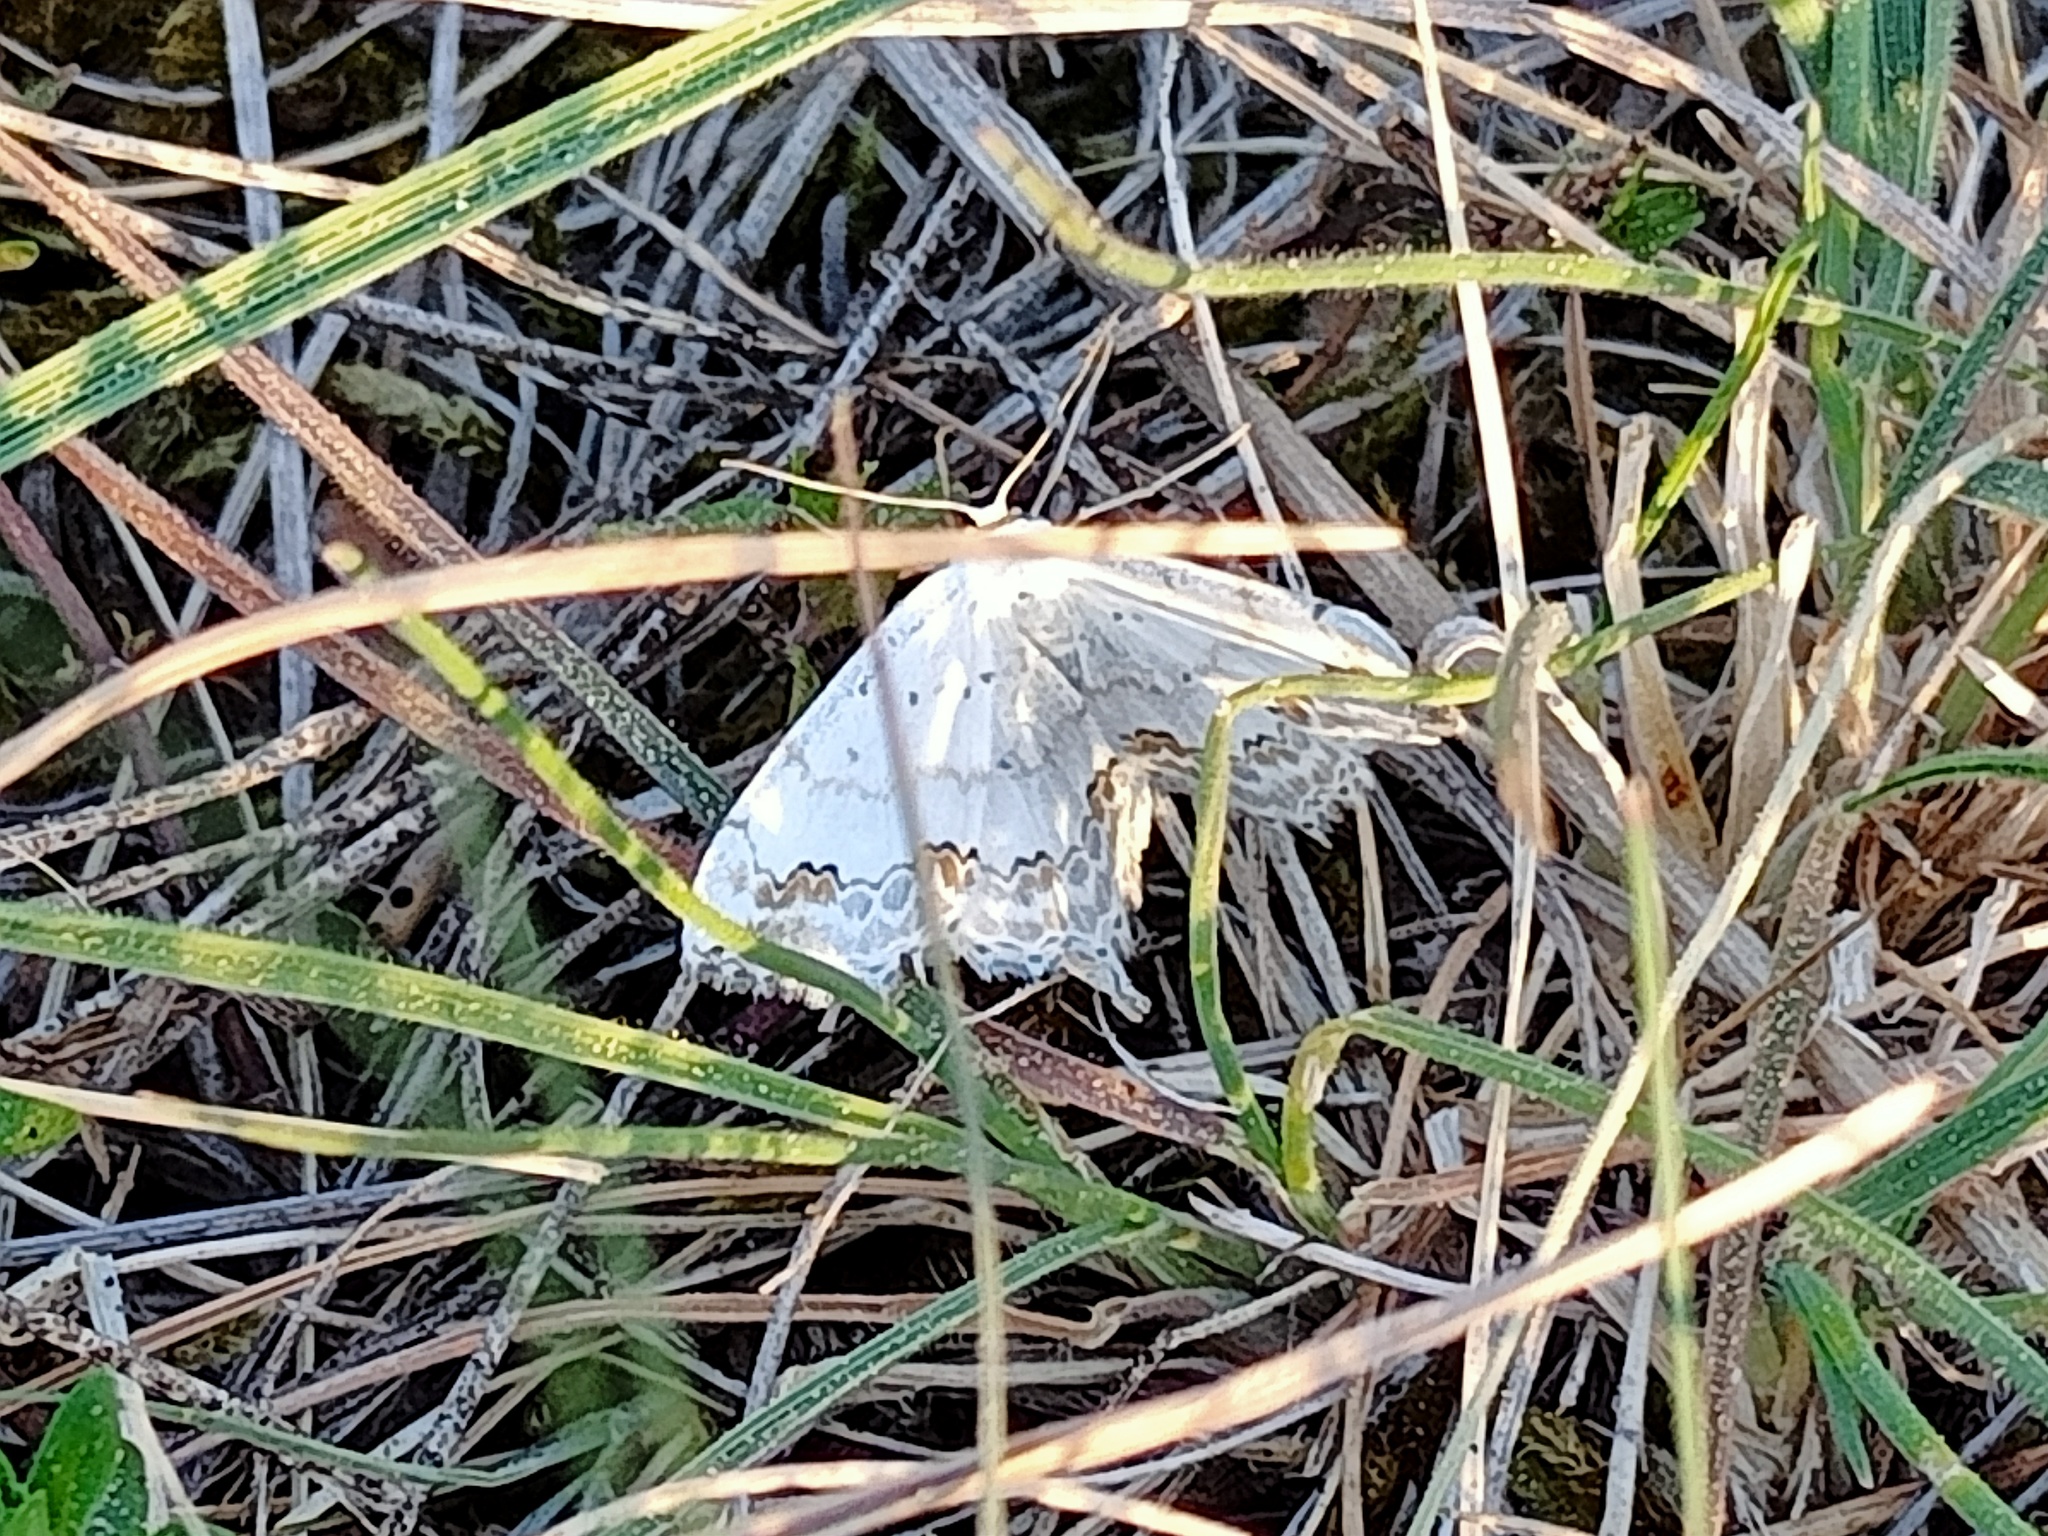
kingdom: Animalia
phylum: Arthropoda
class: Insecta
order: Lepidoptera
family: Geometridae
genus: Scopula
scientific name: Scopula ornata
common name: Lace border
